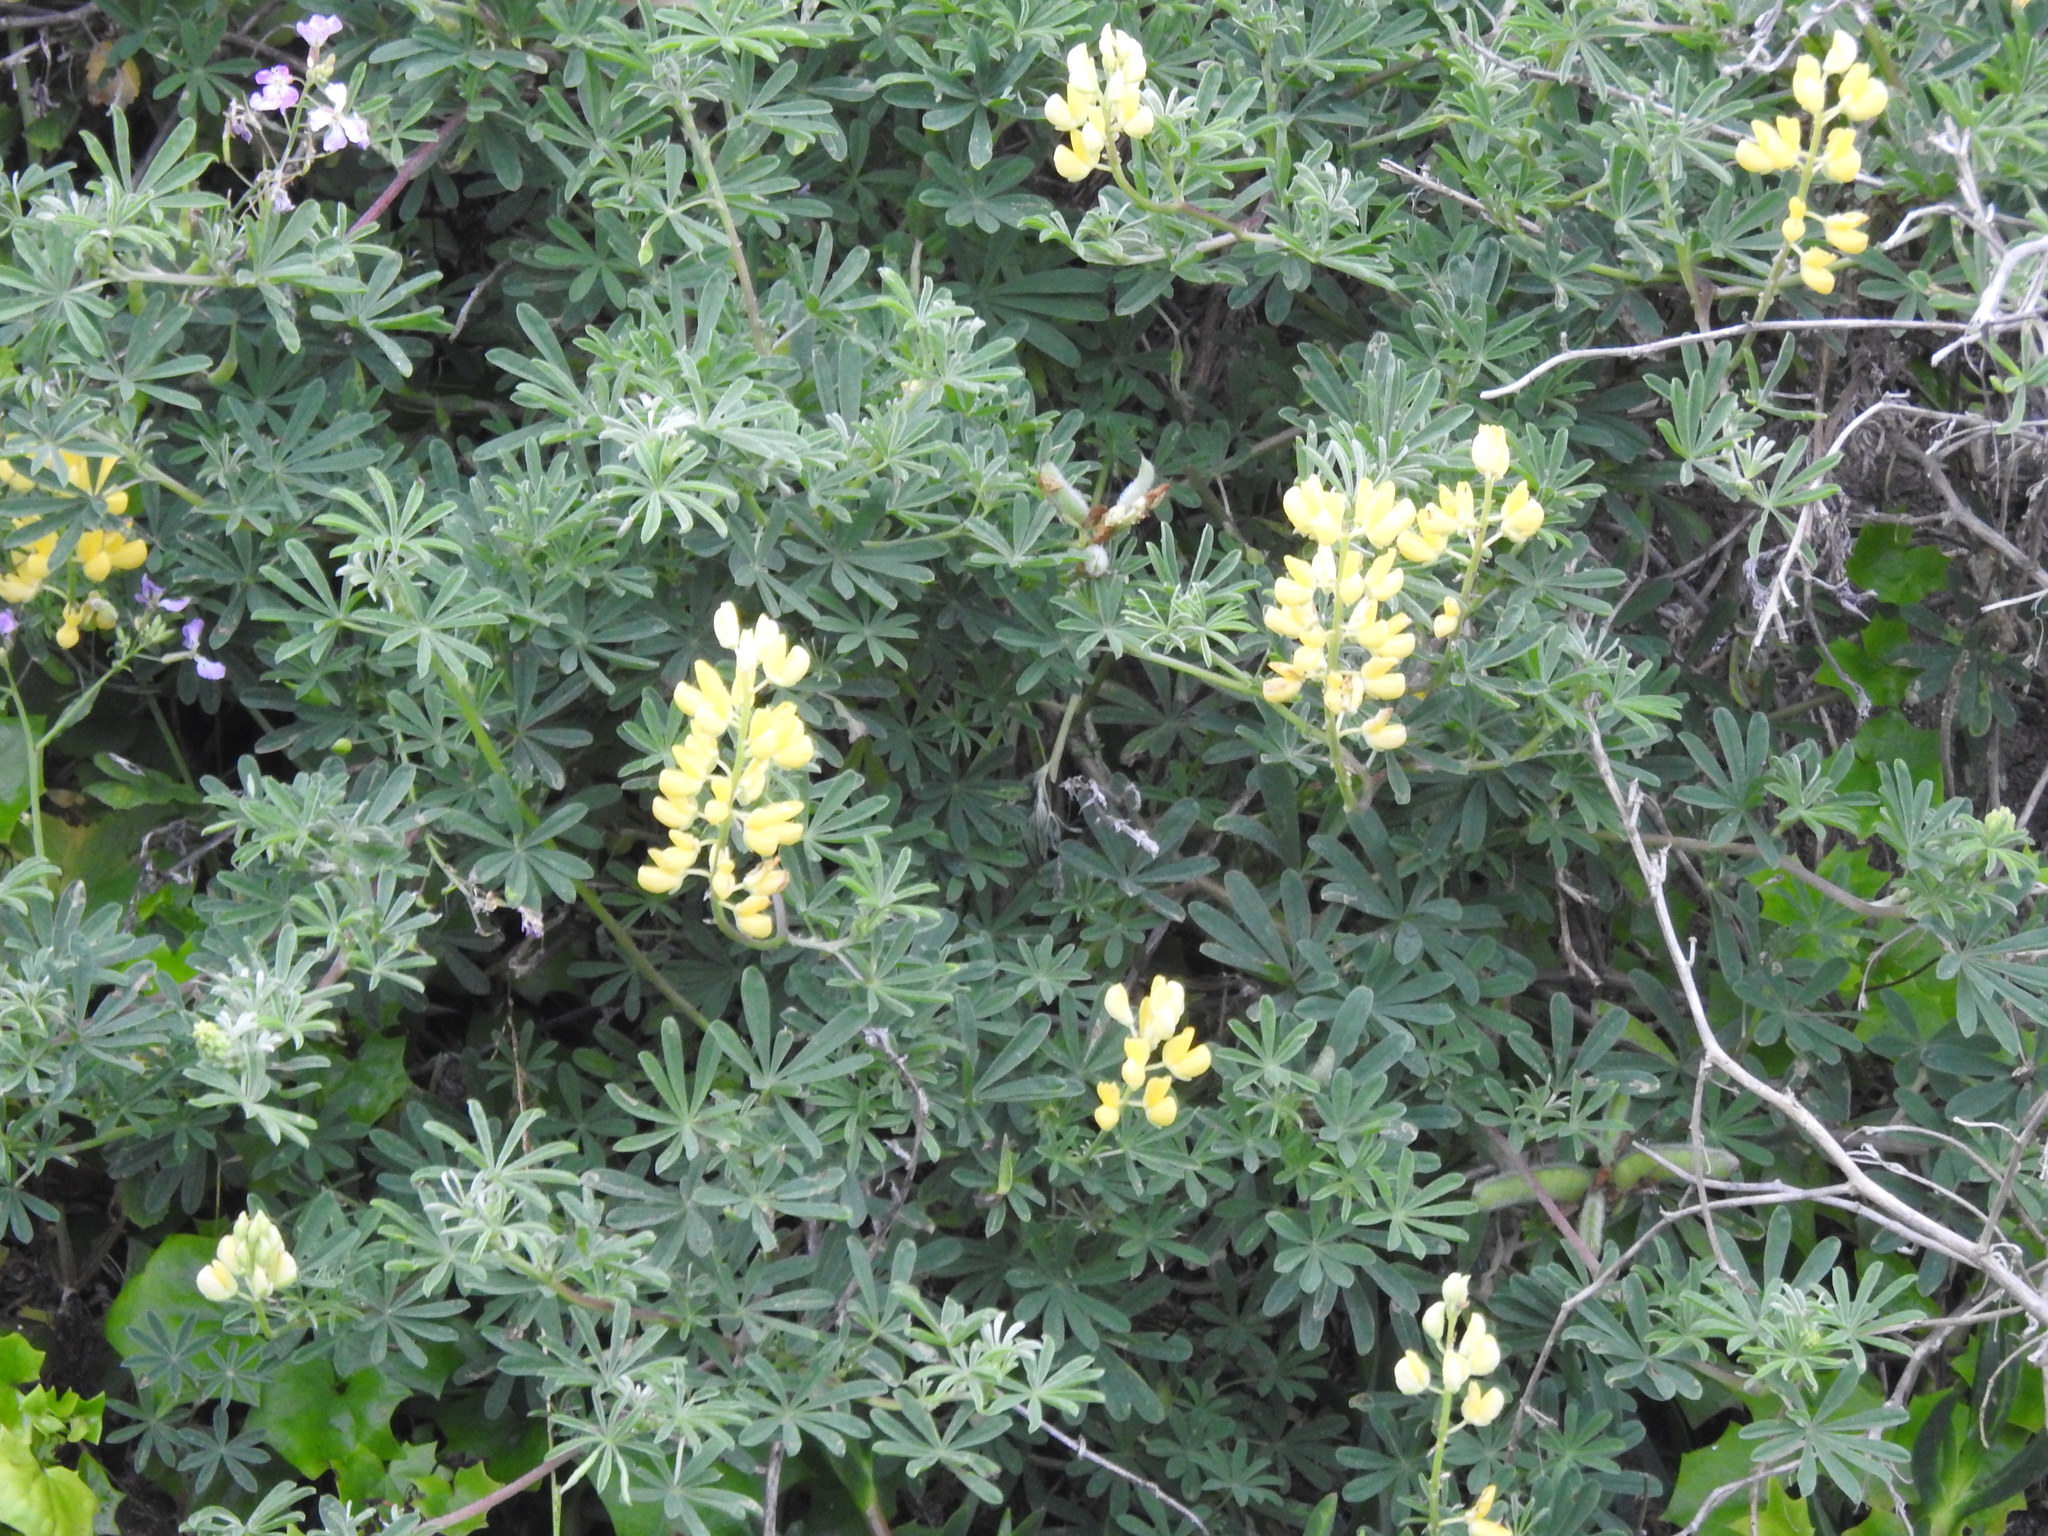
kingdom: Plantae
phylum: Tracheophyta
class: Magnoliopsida
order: Fabales
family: Fabaceae
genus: Lupinus
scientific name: Lupinus arboreus
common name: Yellow bush lupine
